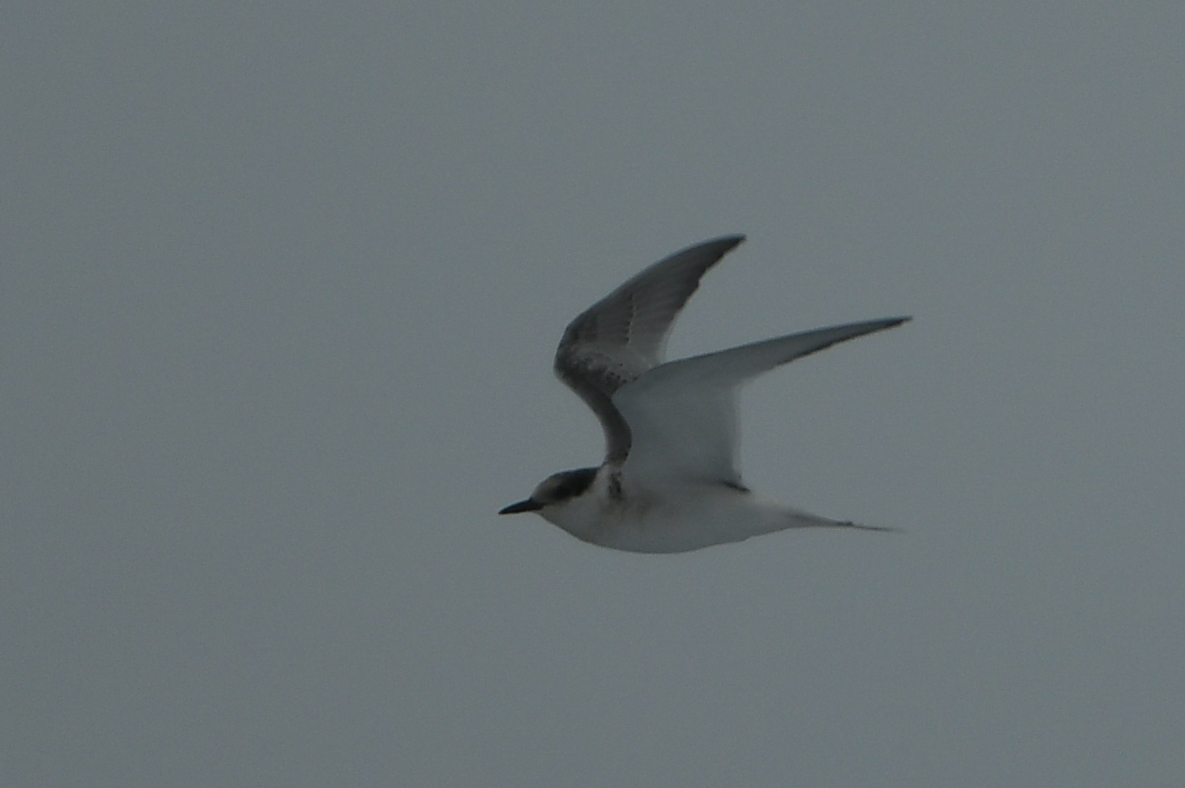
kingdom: Animalia
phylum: Chordata
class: Aves
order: Charadriiformes
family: Laridae
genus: Sterna
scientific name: Sterna vittata
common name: Antarctic tern
